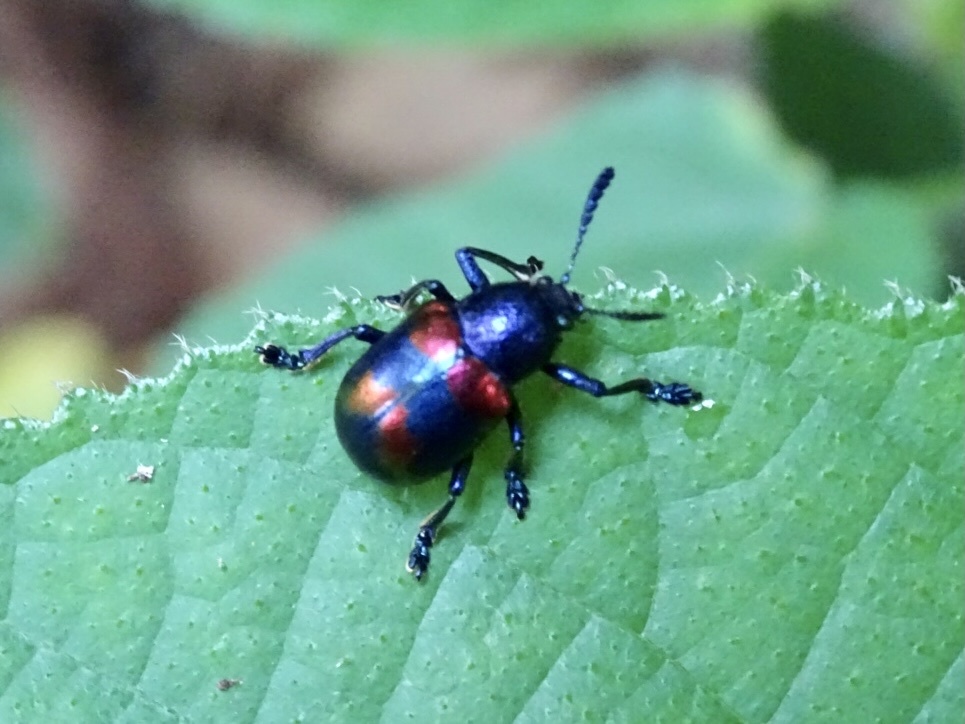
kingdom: Animalia
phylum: Arthropoda
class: Insecta
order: Coleoptera
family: Chrysomelidae
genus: Platycorynus
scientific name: Platycorynus undatus
